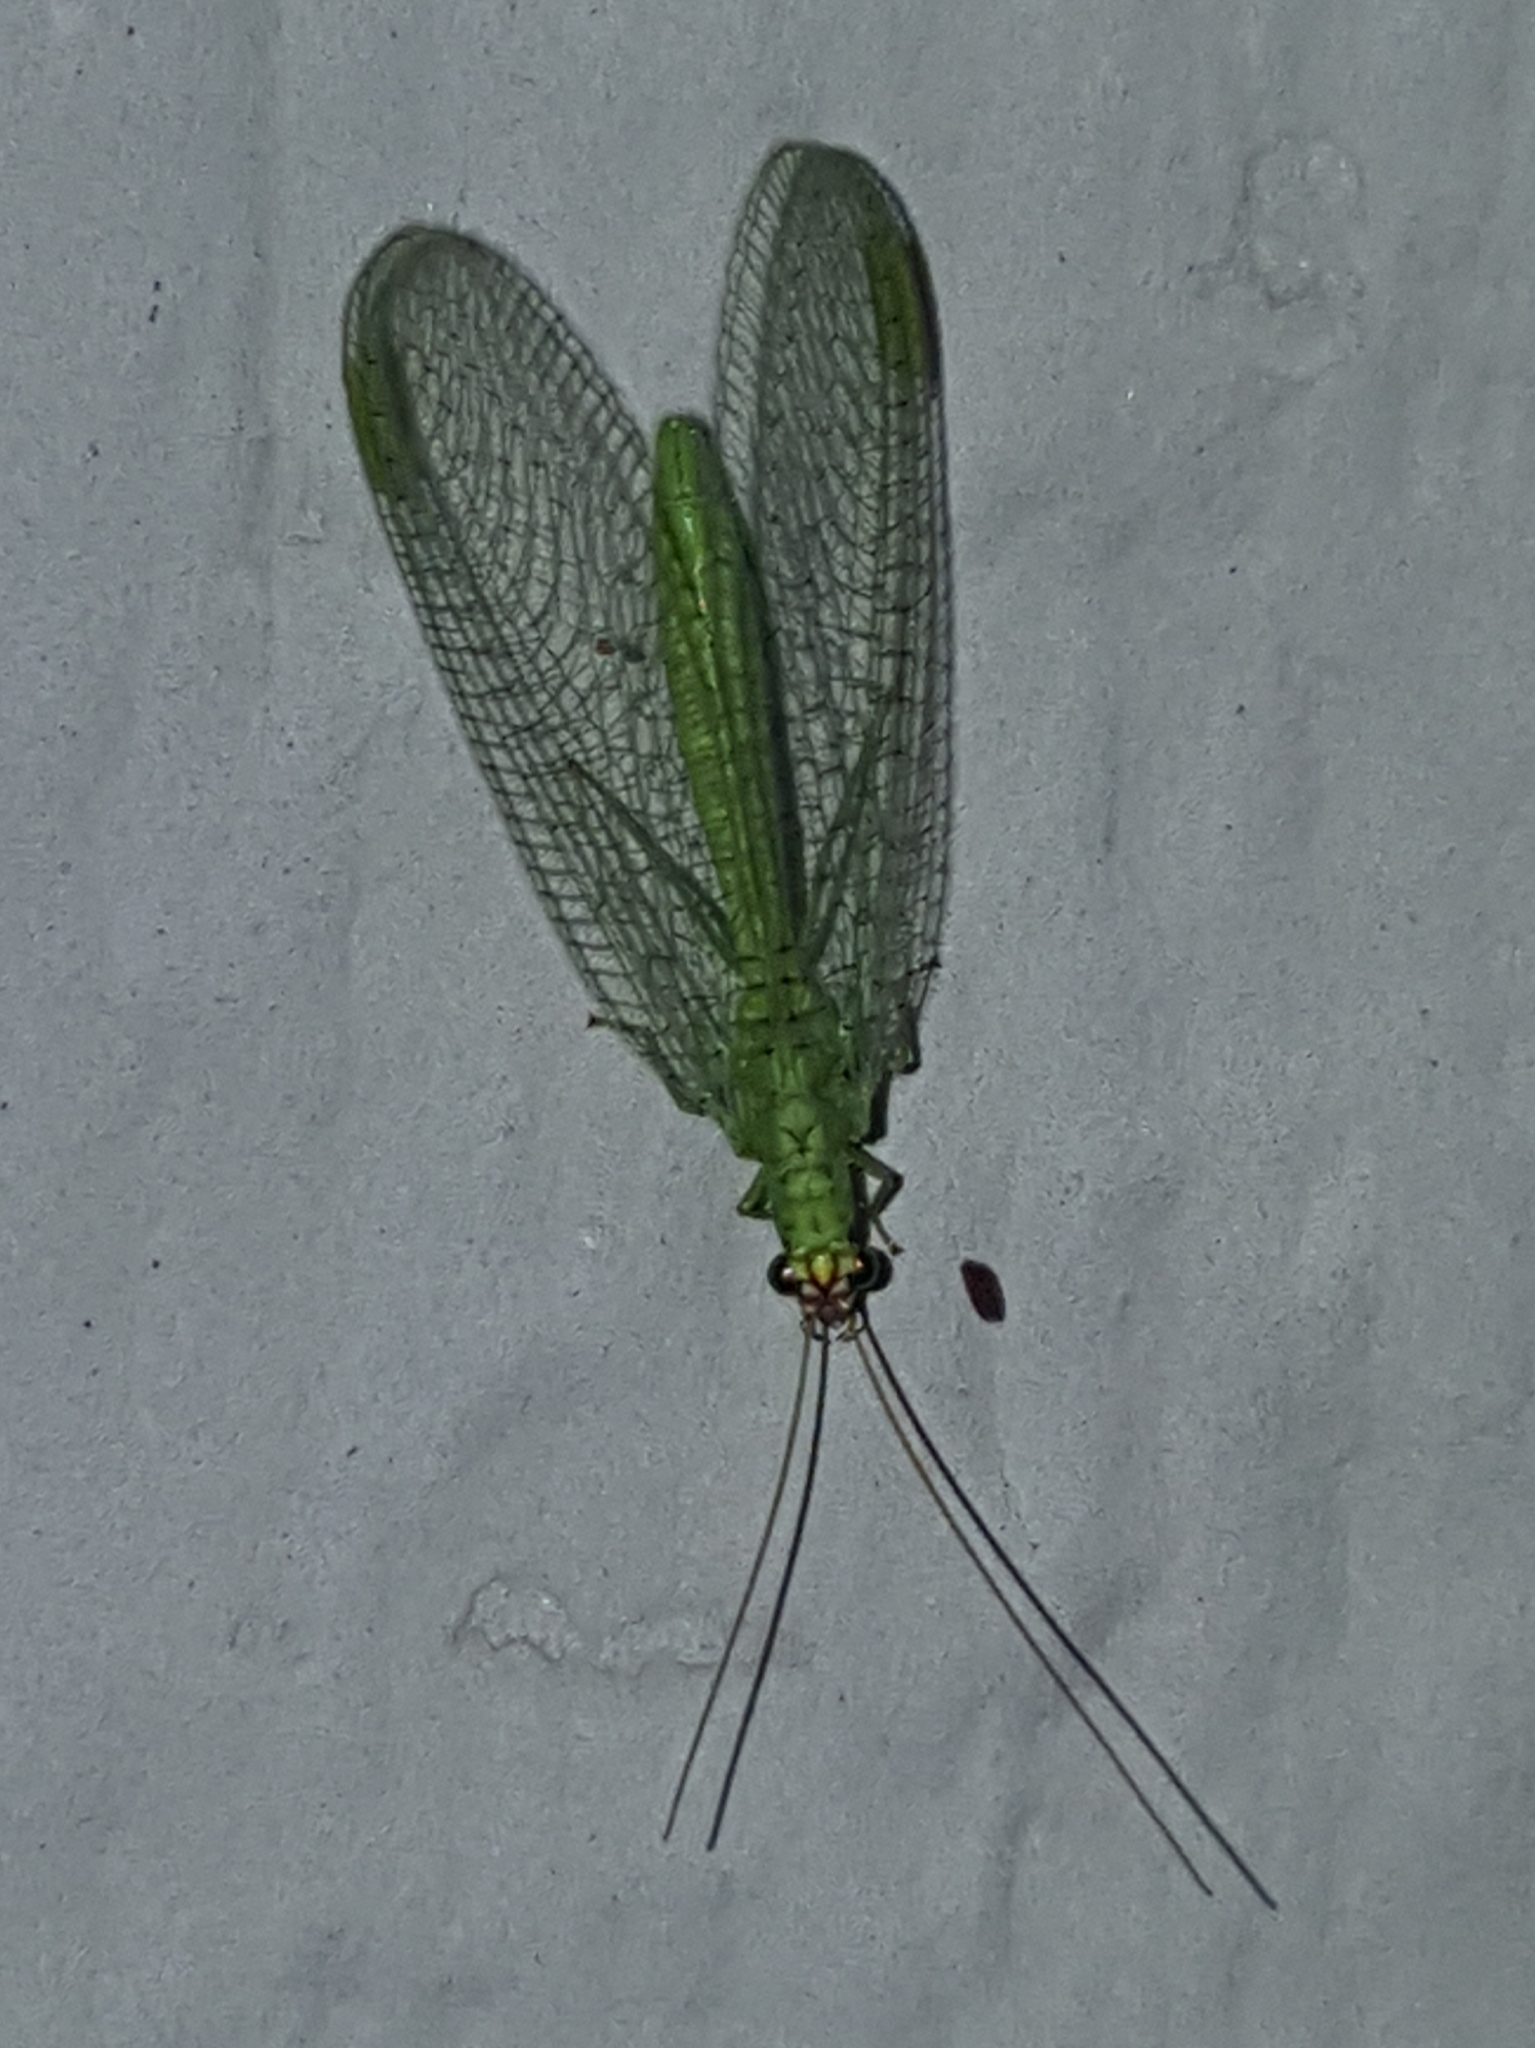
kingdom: Animalia
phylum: Arthropoda
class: Insecta
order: Neuroptera
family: Chrysopidae
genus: Chrysopa
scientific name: Chrysopa oculata
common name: Golden-eyed lacewing
